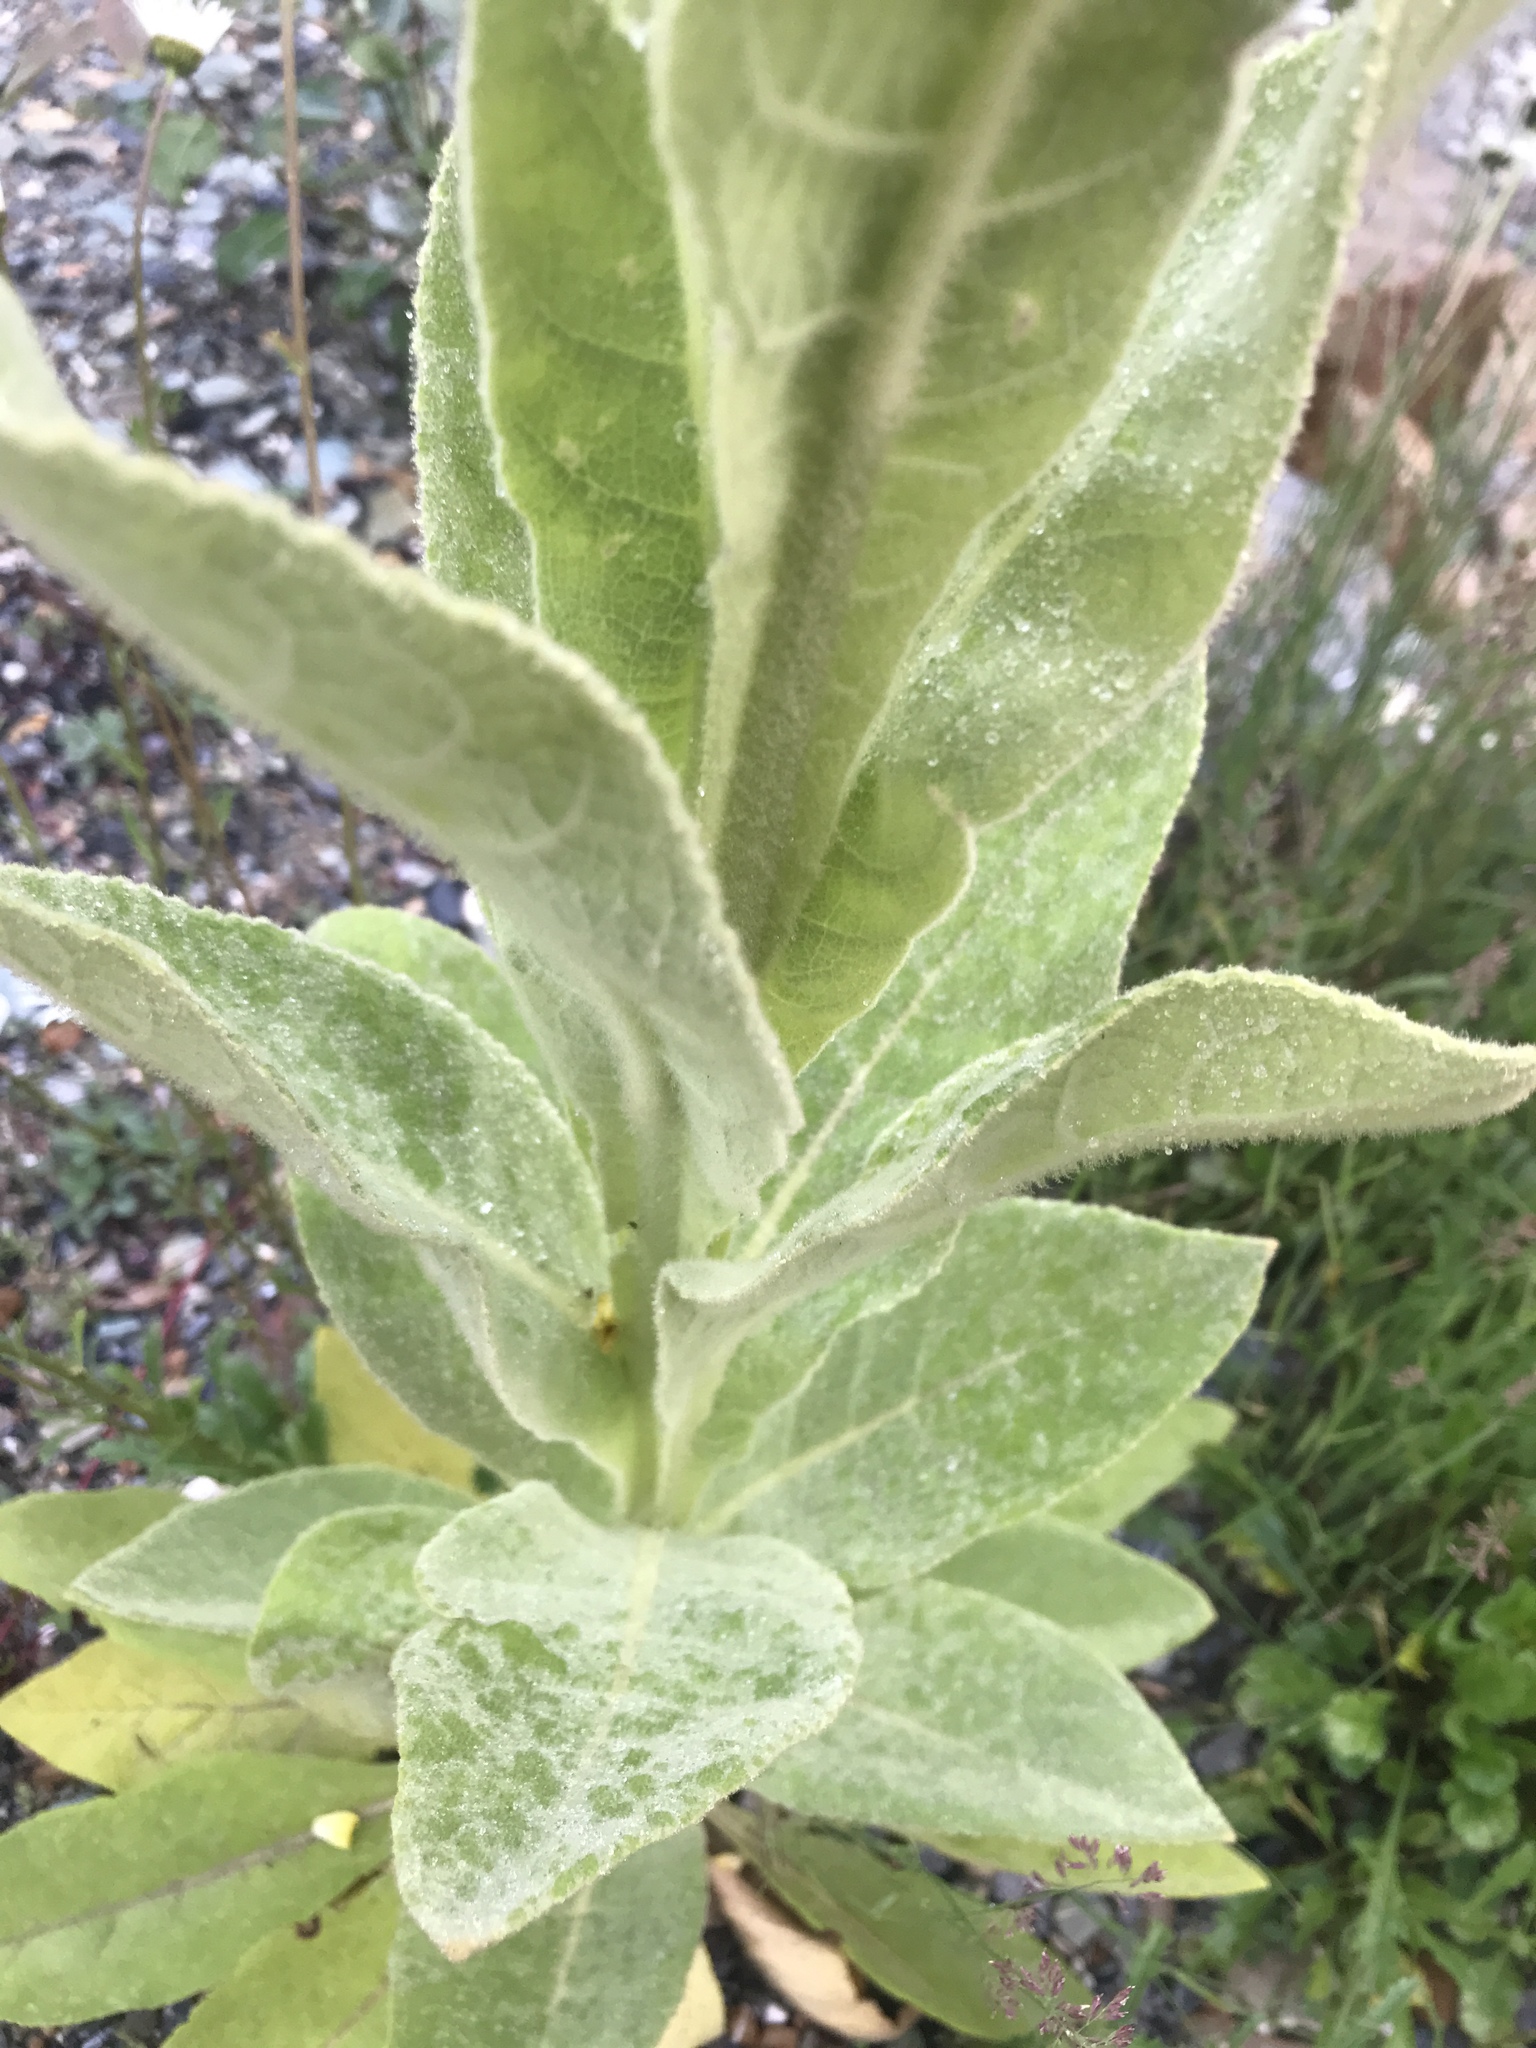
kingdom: Plantae
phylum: Tracheophyta
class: Magnoliopsida
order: Lamiales
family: Scrophulariaceae
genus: Verbascum
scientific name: Verbascum thapsus
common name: Common mullein
